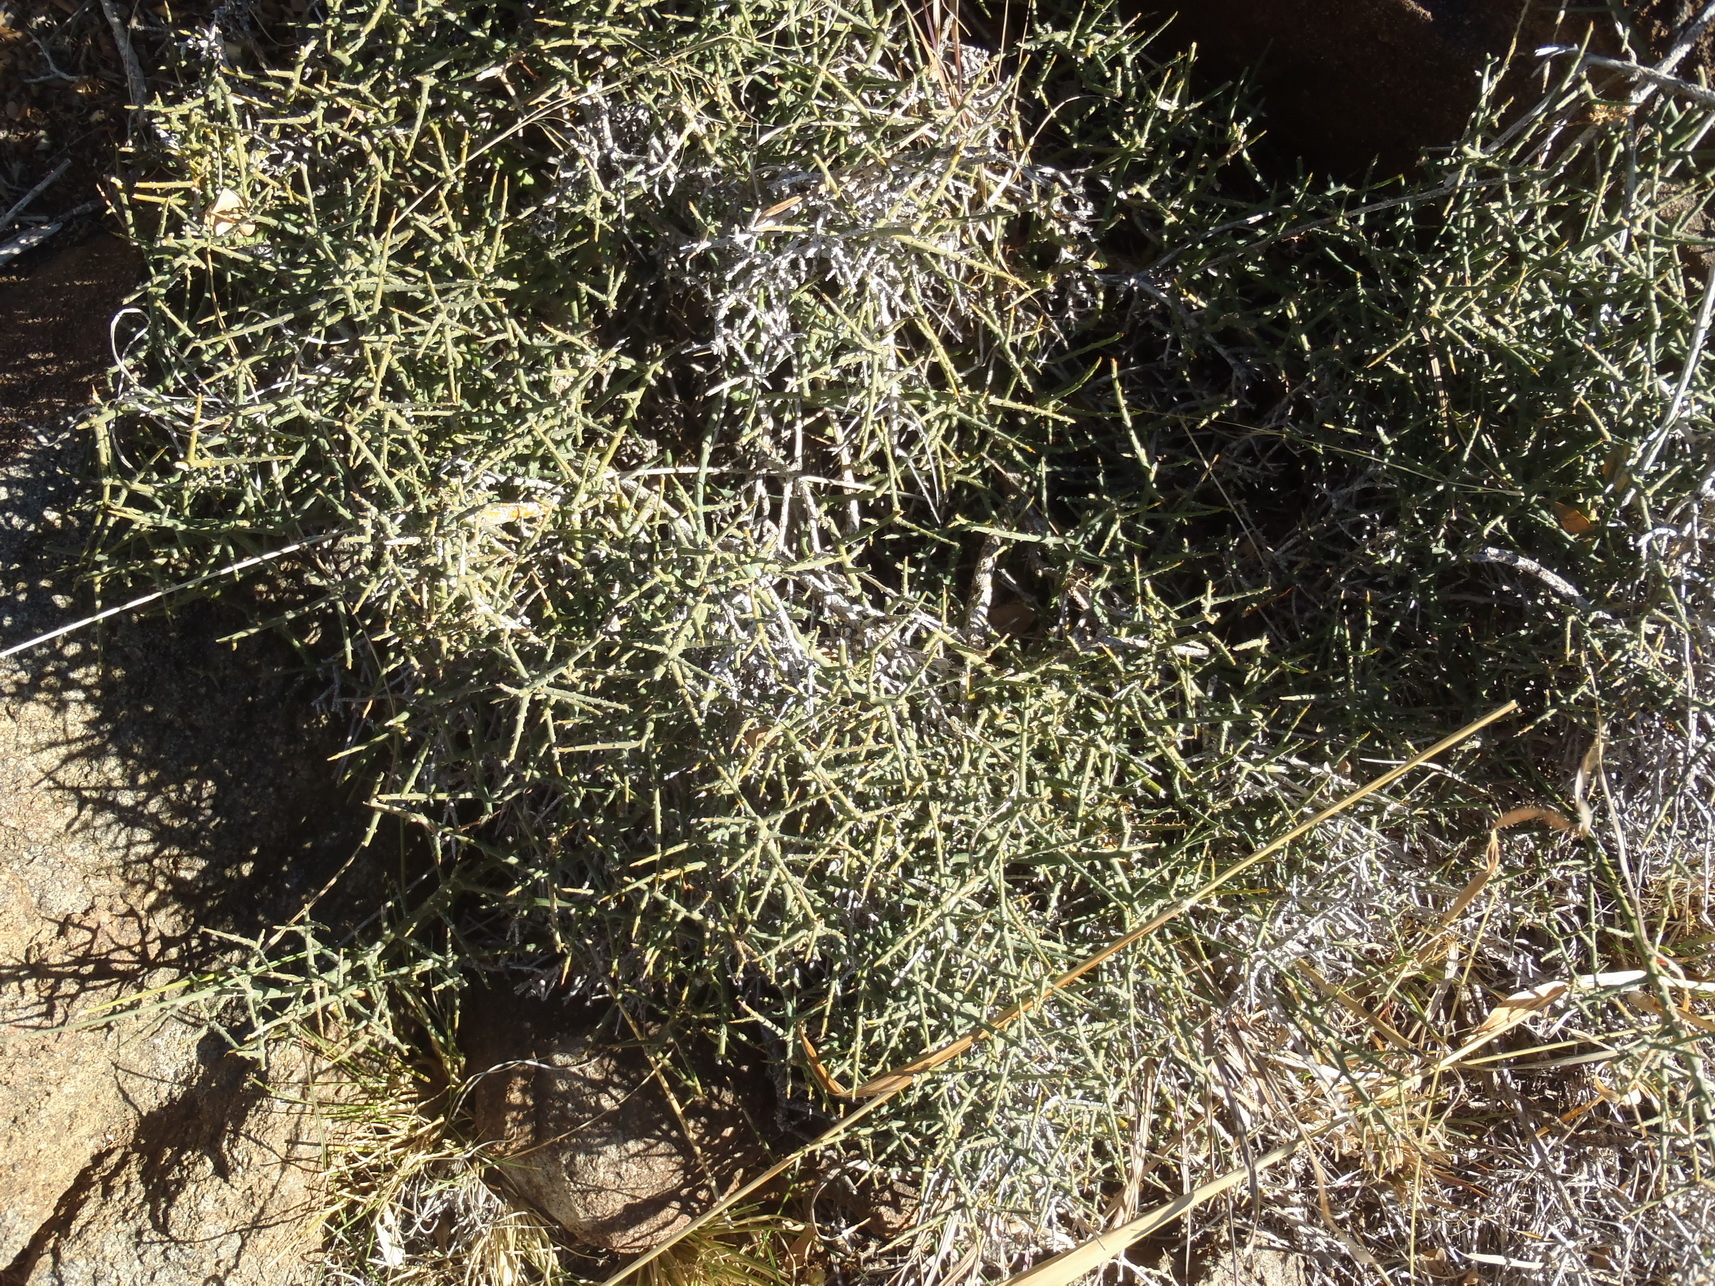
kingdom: Plantae
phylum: Tracheophyta
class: Magnoliopsida
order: Santalales
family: Thesiaceae
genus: Lacomucinaea
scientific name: Lacomucinaea lineata
